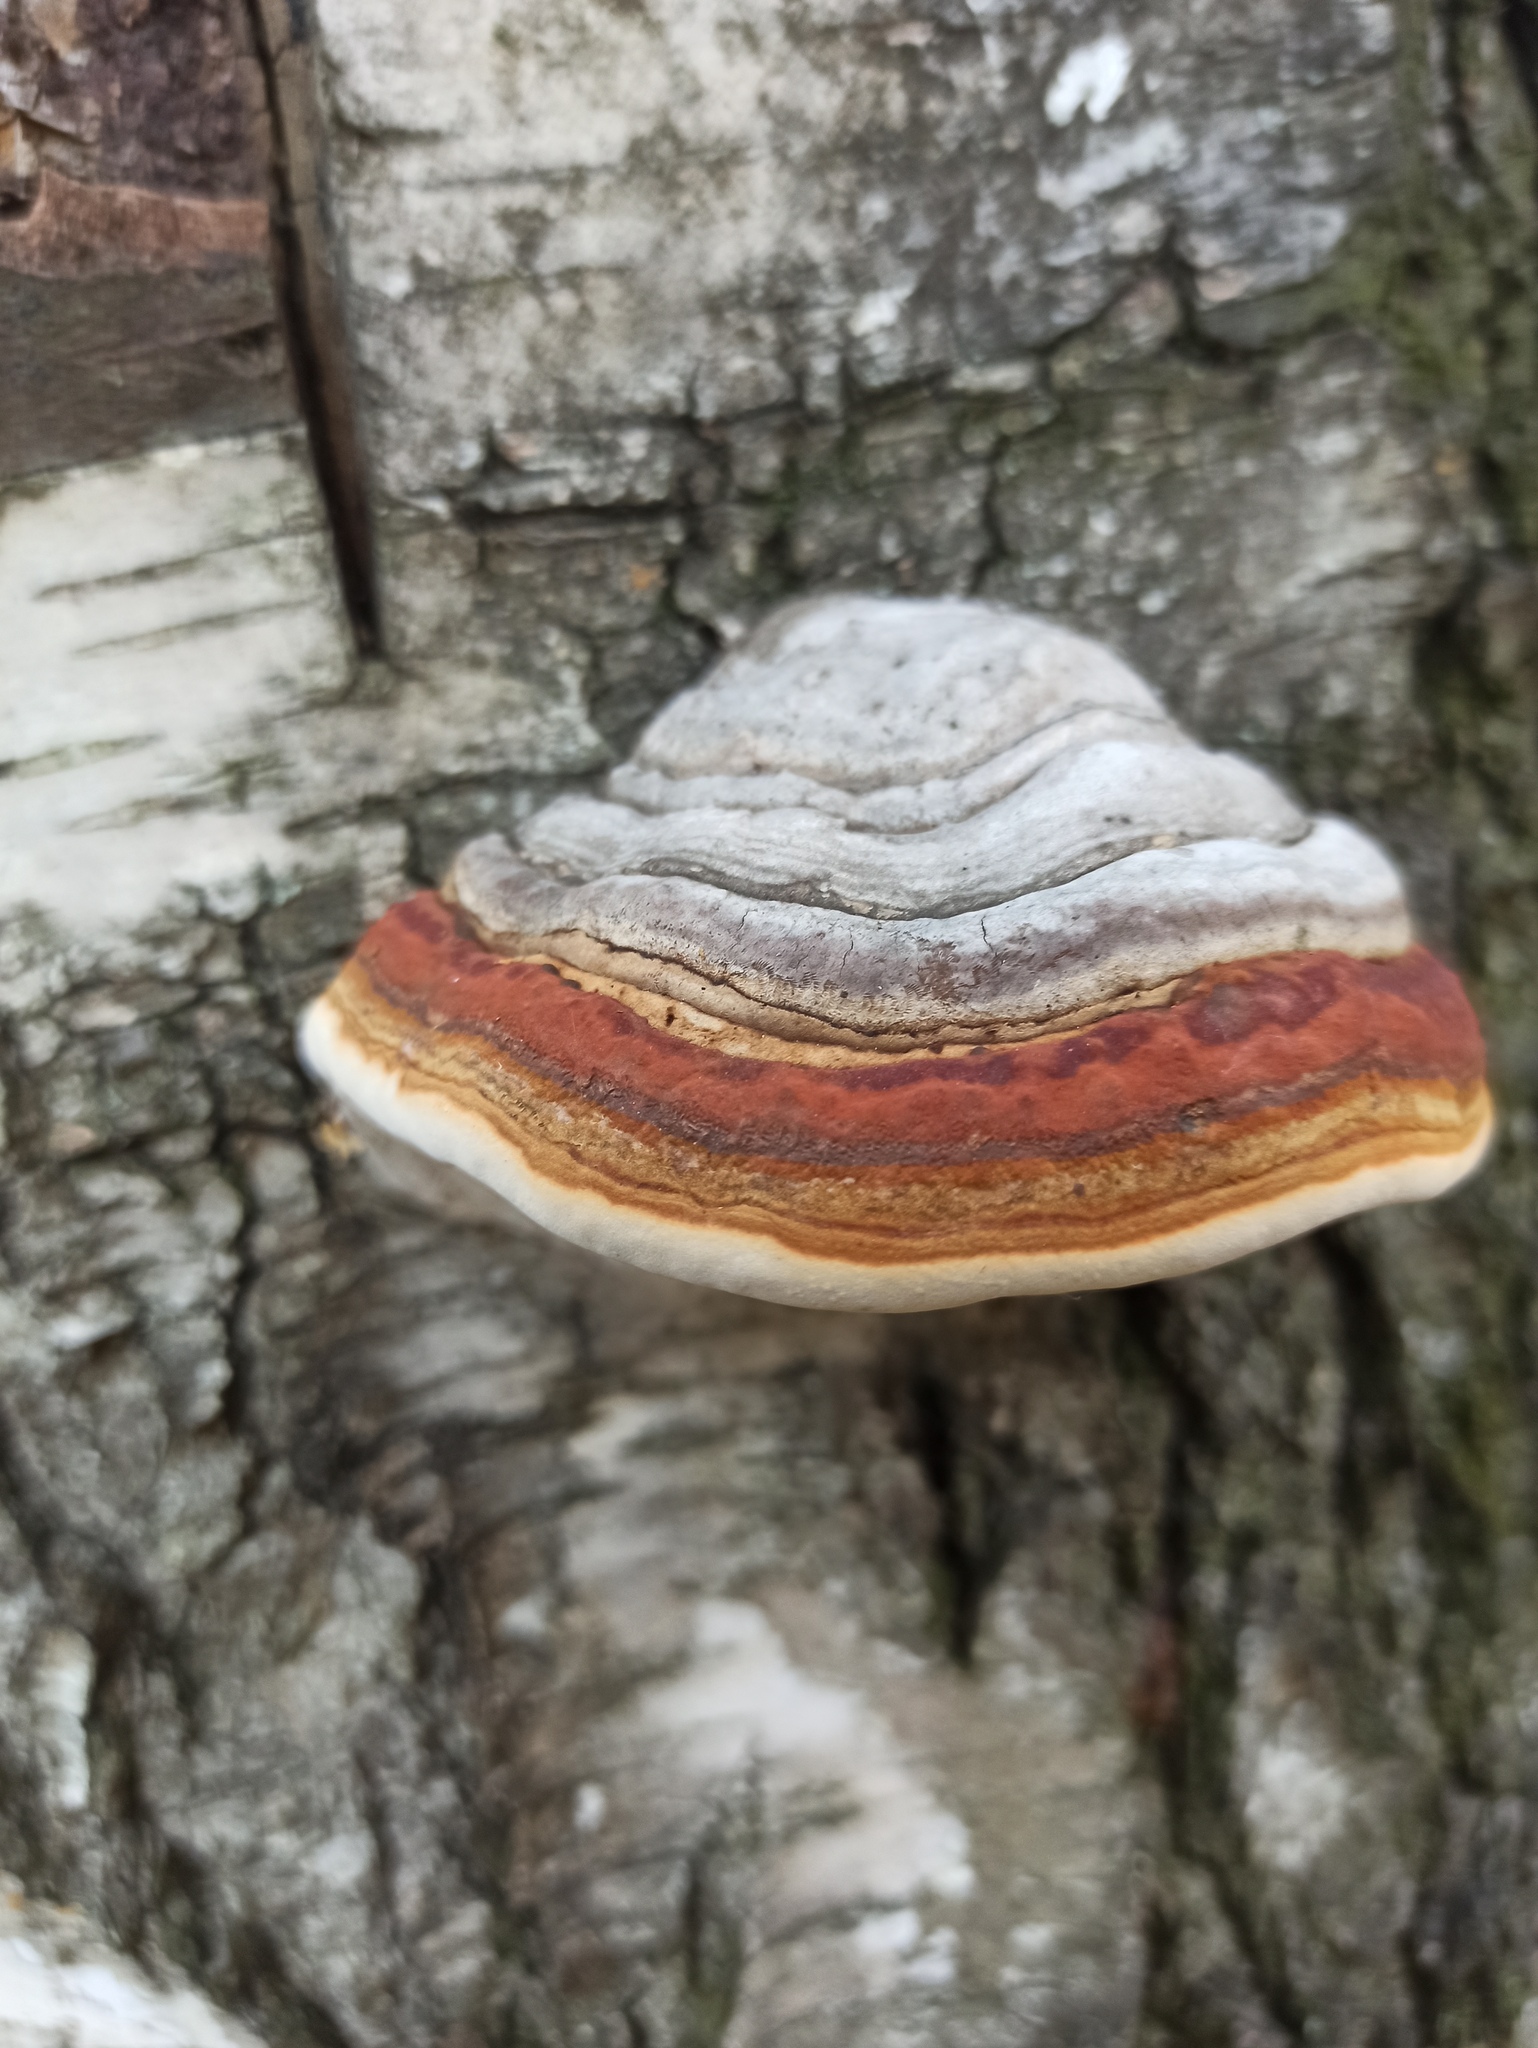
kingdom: Fungi
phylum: Basidiomycota
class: Agaricomycetes
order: Polyporales
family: Polyporaceae
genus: Fomes
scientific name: Fomes fomentarius
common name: Hoof fungus
